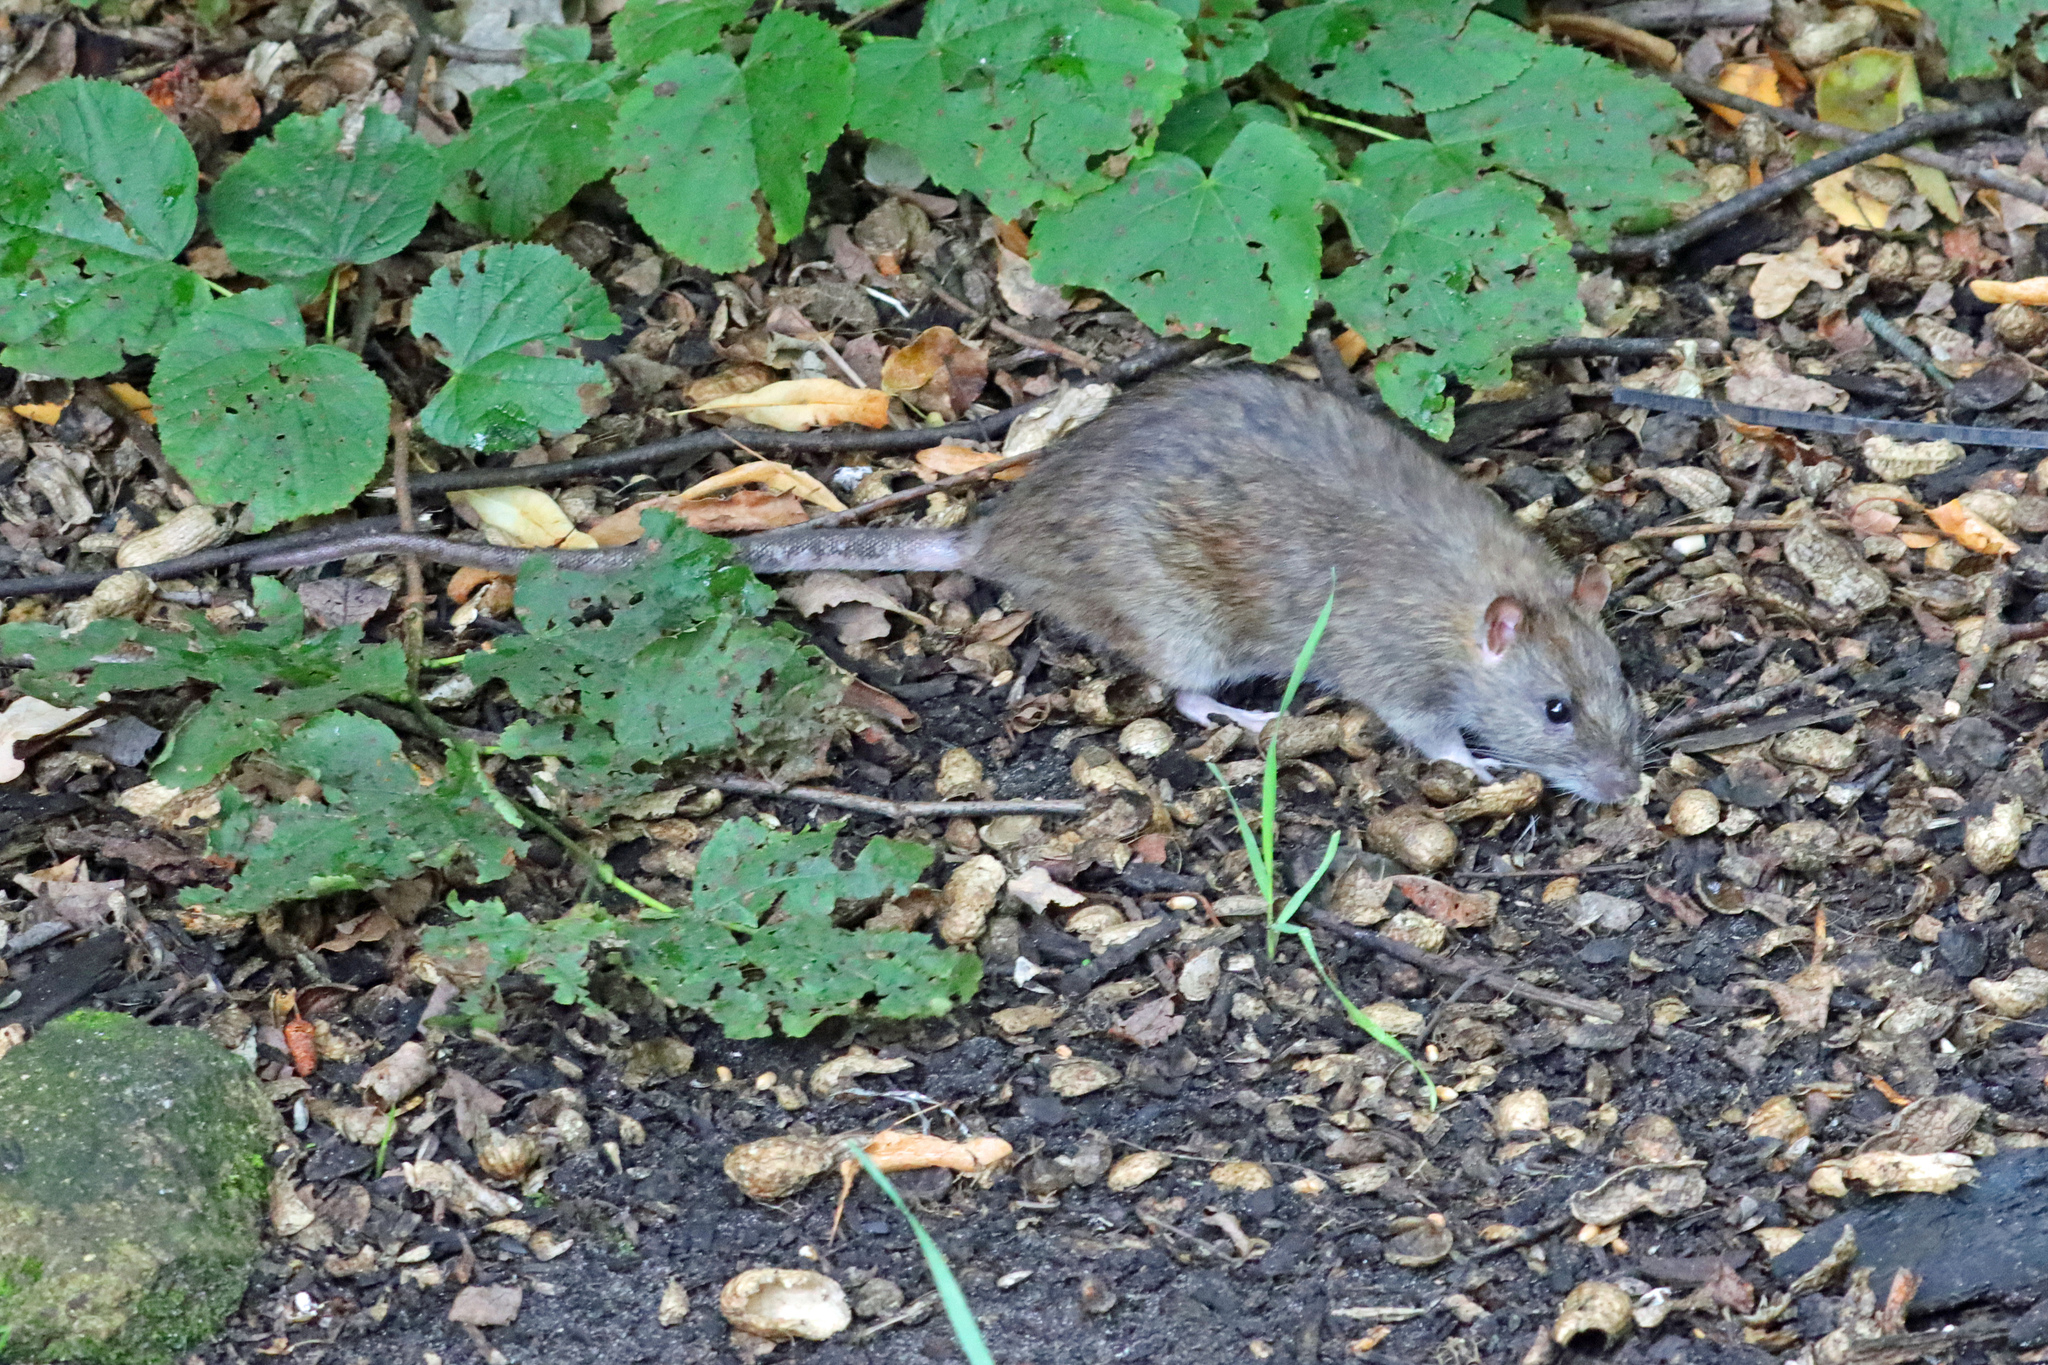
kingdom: Animalia
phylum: Chordata
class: Mammalia
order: Rodentia
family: Muridae
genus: Rattus
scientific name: Rattus norvegicus
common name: Brown rat
